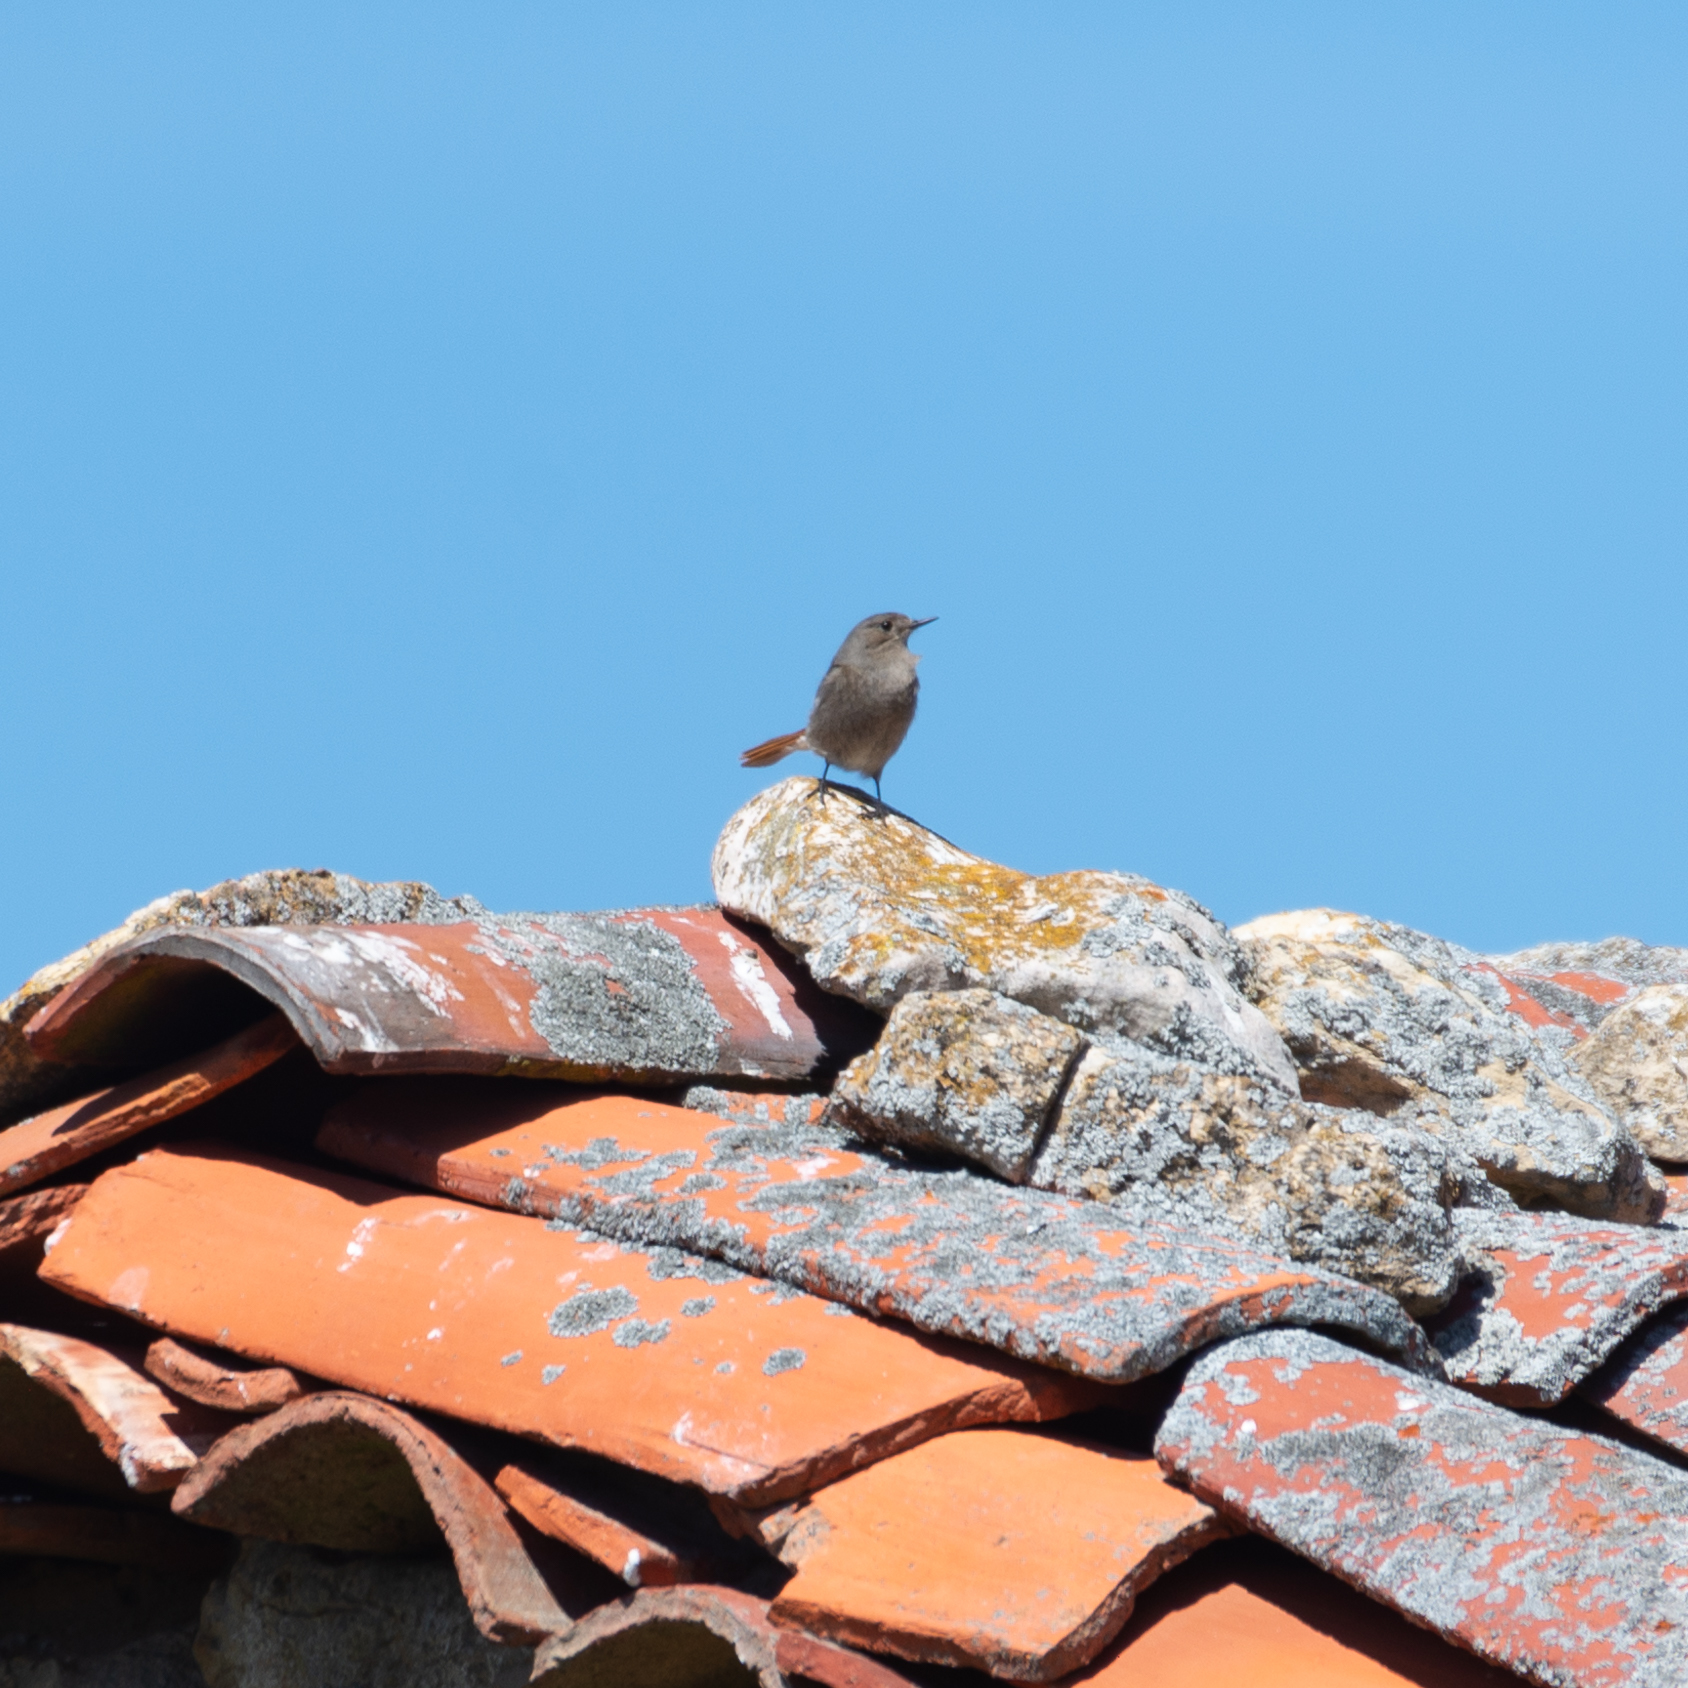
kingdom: Animalia
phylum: Chordata
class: Aves
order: Passeriformes
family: Muscicapidae
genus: Phoenicurus
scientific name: Phoenicurus ochruros
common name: Black redstart
